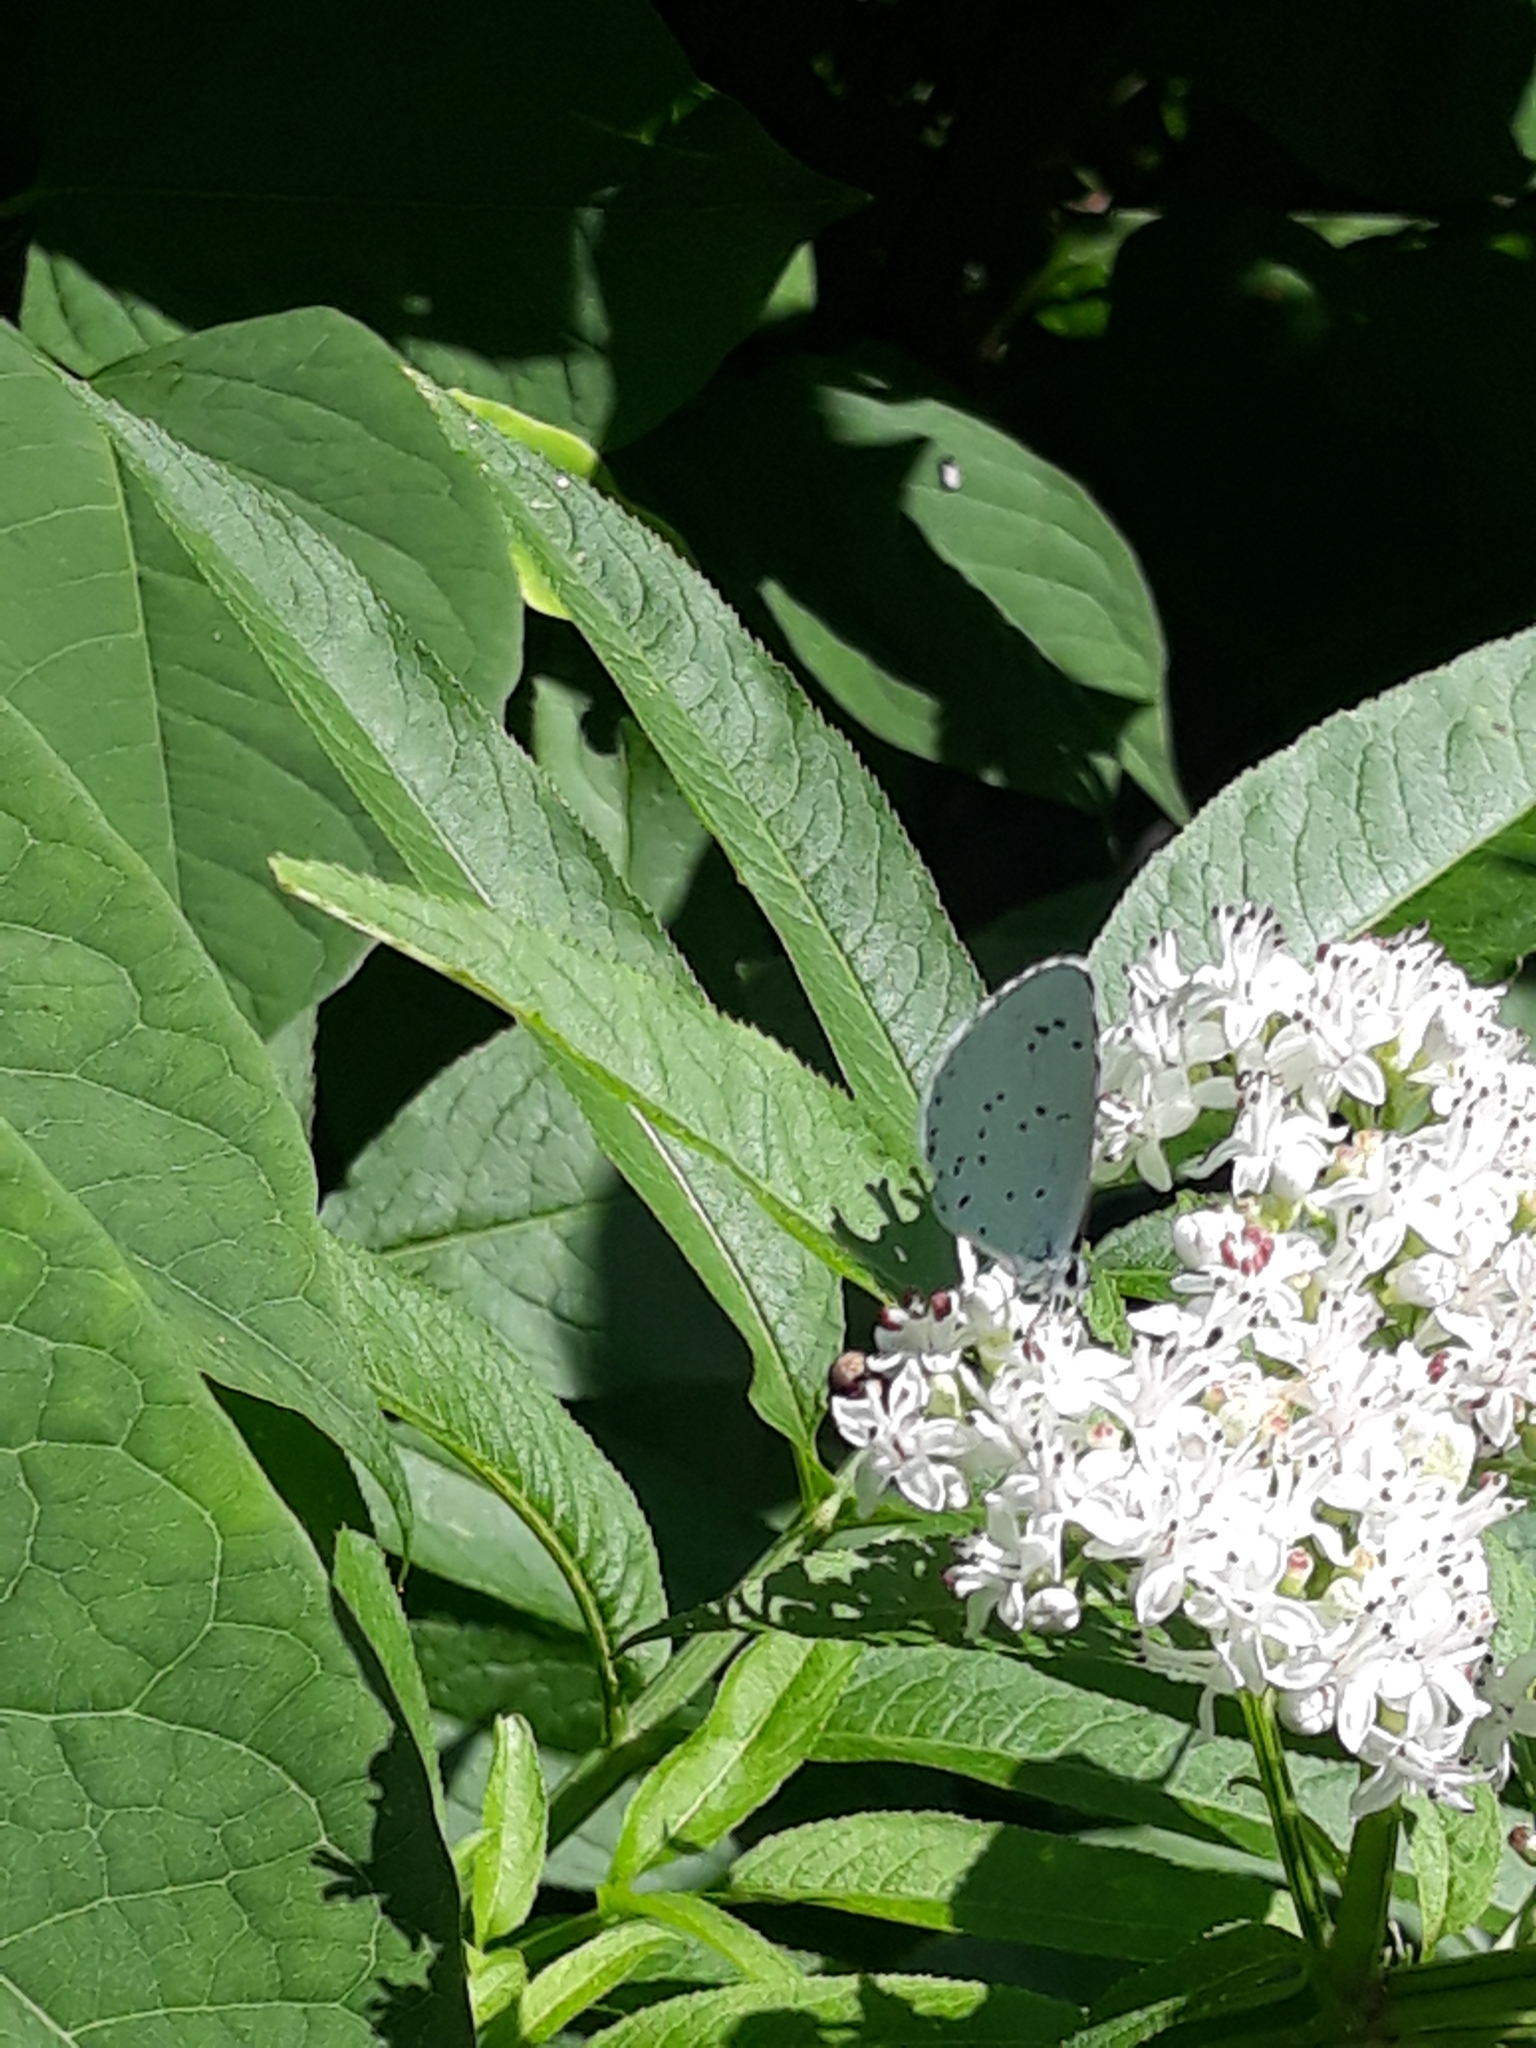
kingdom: Animalia
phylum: Arthropoda
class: Insecta
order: Lepidoptera
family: Lycaenidae
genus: Celastrina
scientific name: Celastrina argiolus
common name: Holly blue
